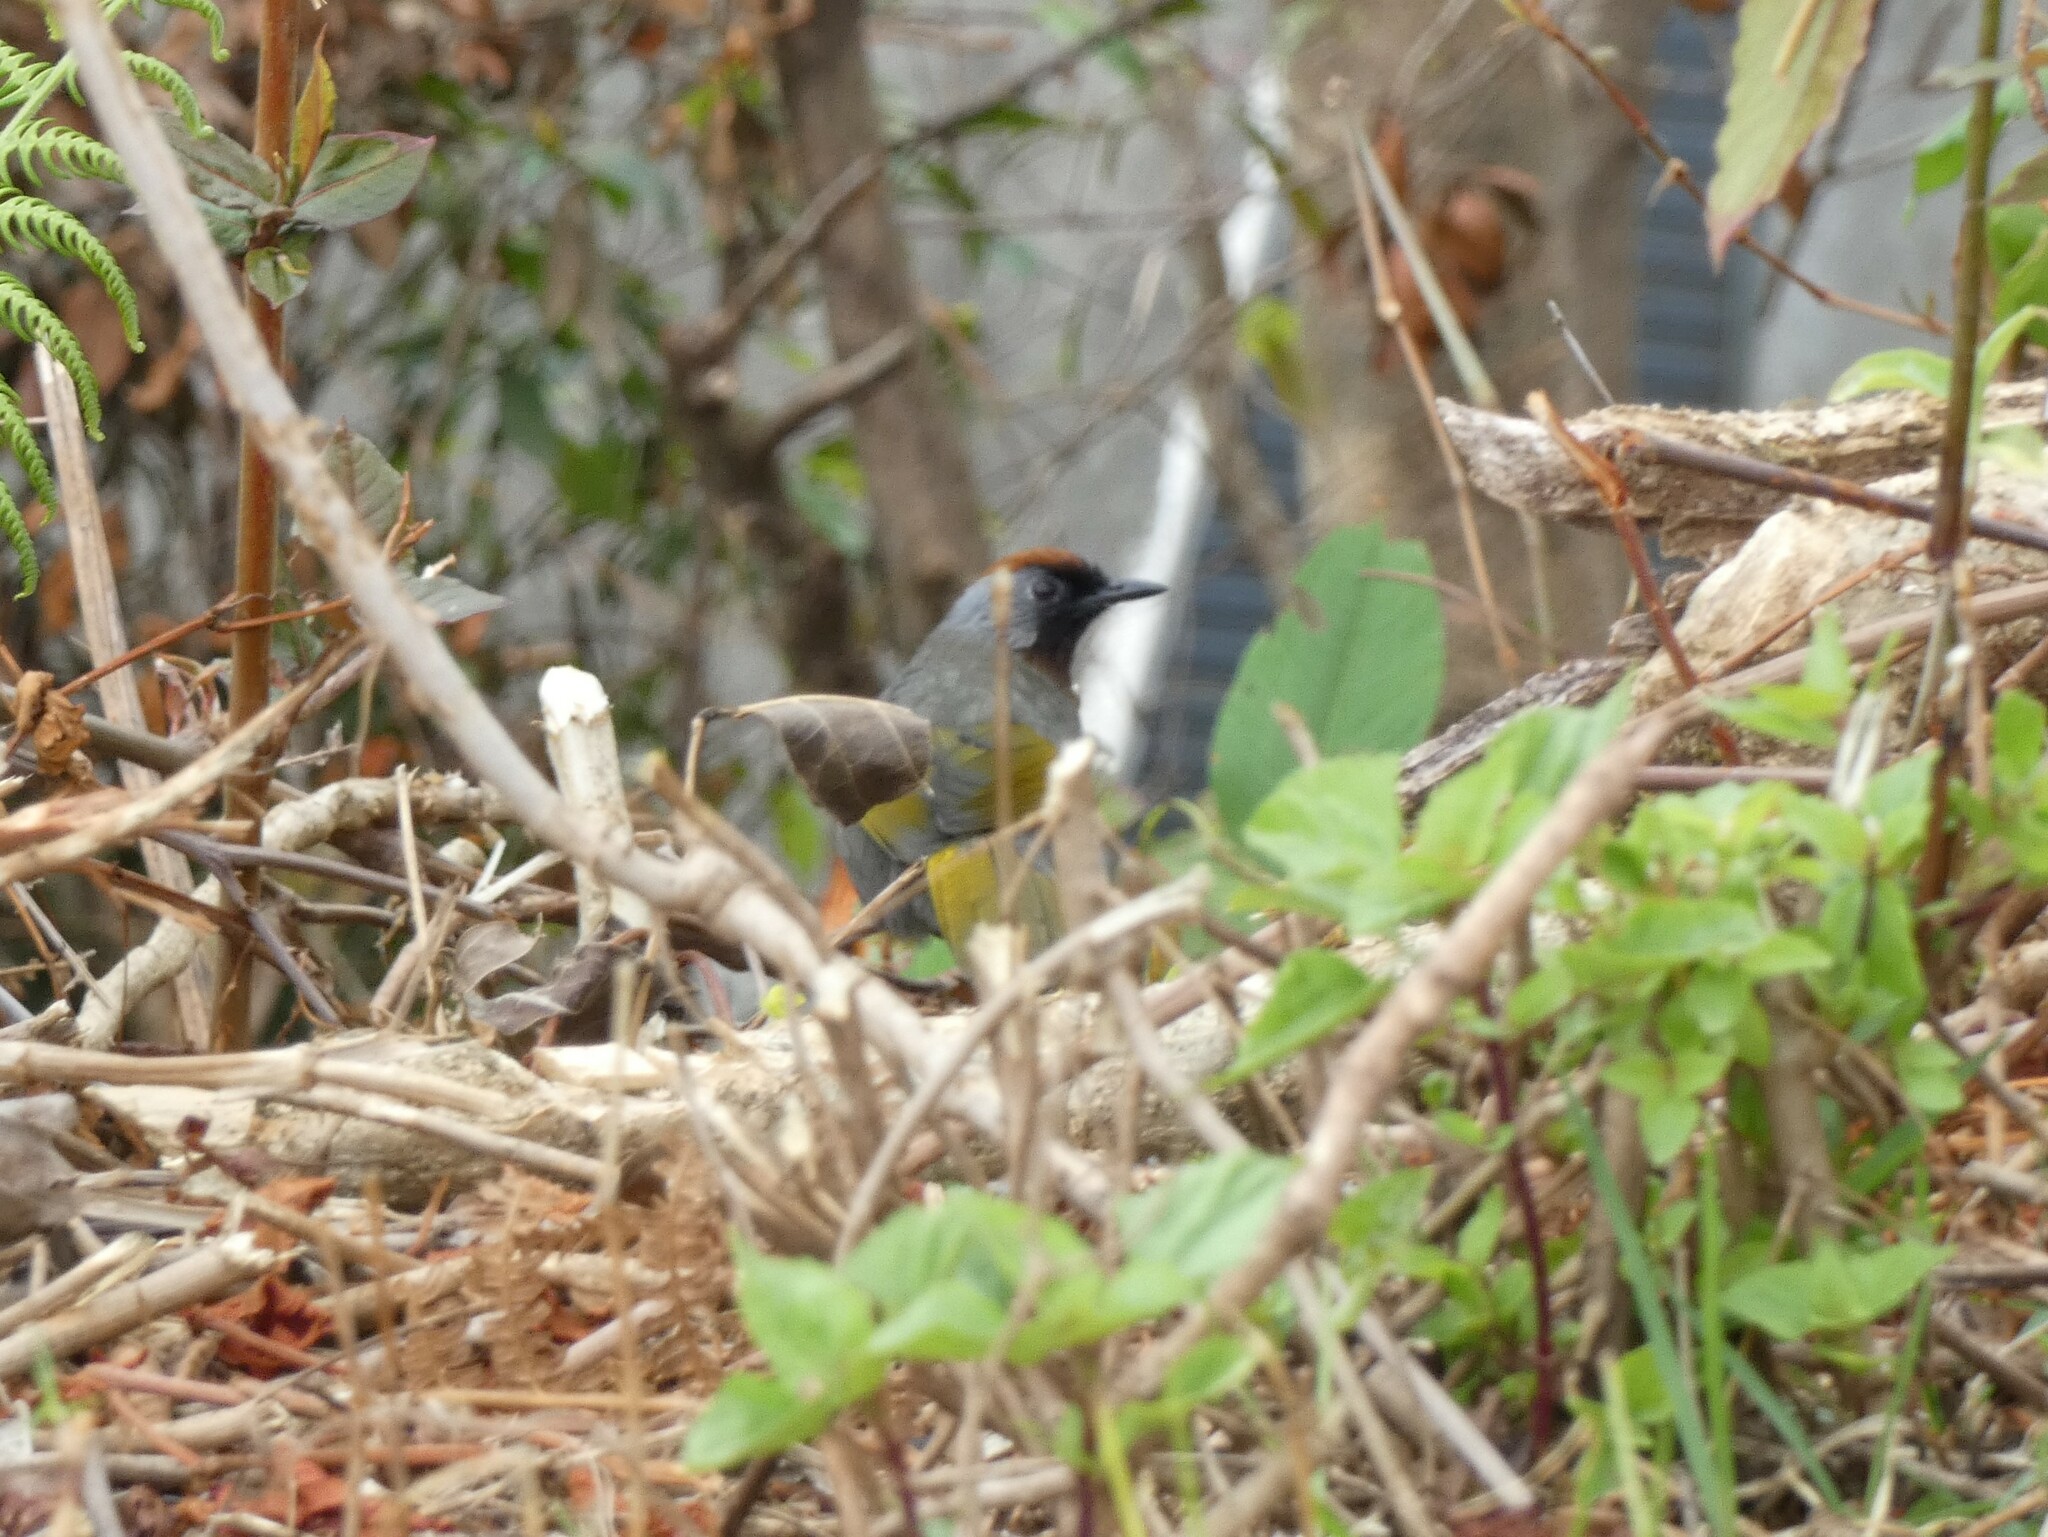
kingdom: Animalia
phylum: Chordata
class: Aves
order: Passeriformes
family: Leiothrichidae
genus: Trochalopteron
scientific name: Trochalopteron melanostigma
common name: Silver-eared laughingthrush
